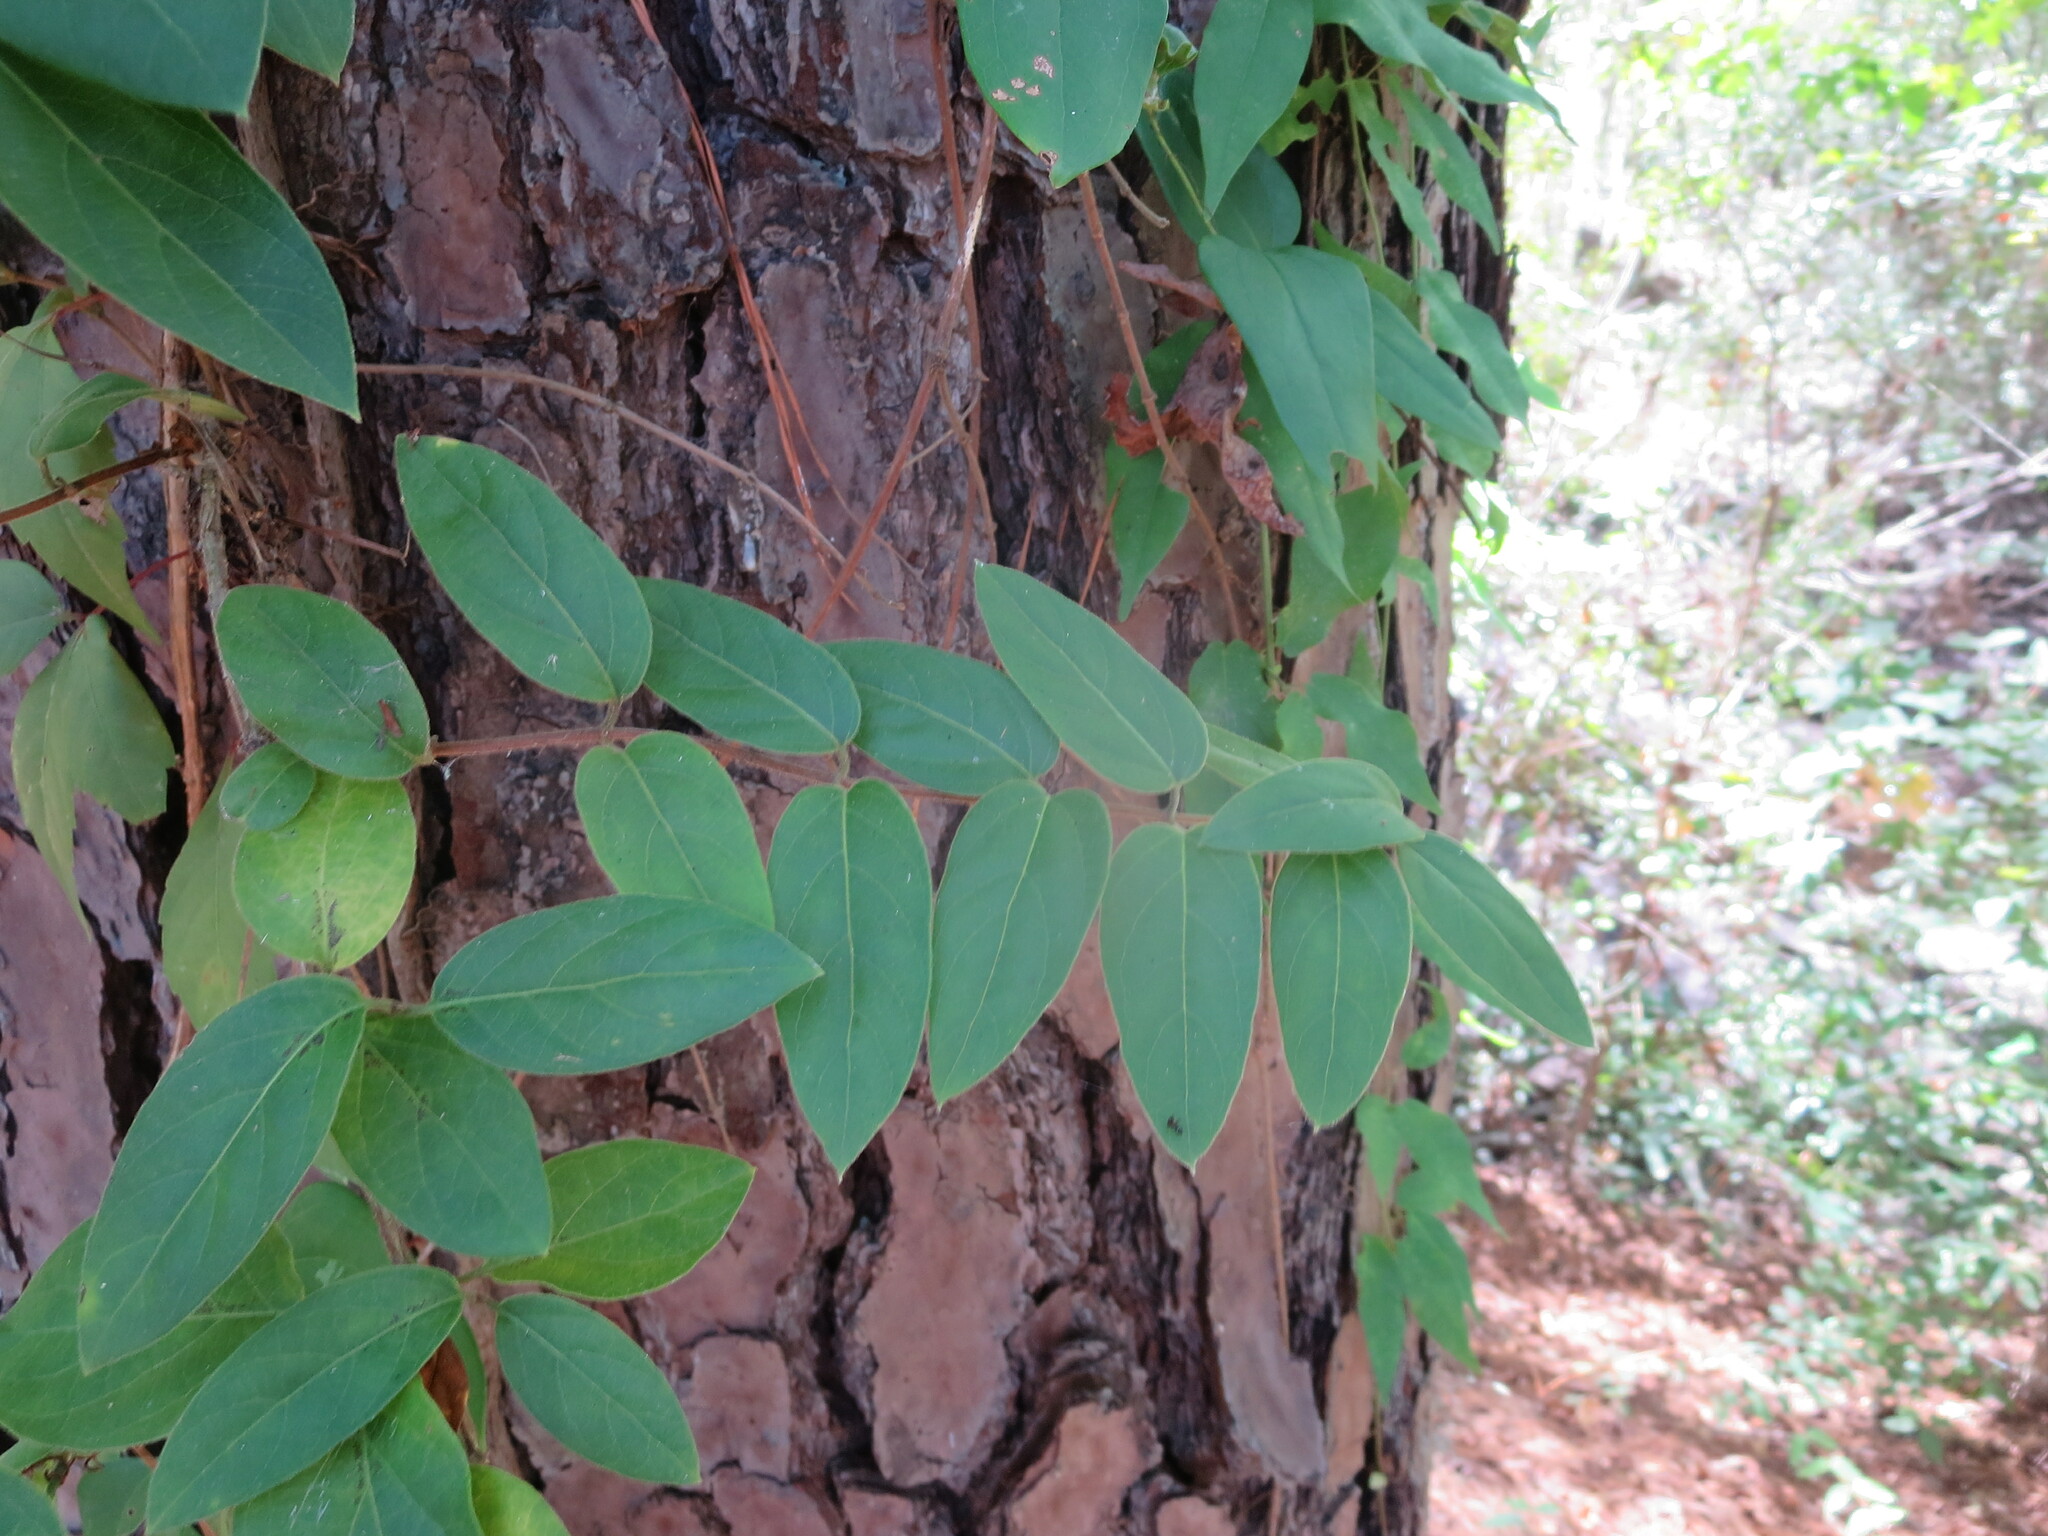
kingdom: Plantae
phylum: Tracheophyta
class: Magnoliopsida
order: Dipsacales
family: Caprifoliaceae
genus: Lonicera
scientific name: Lonicera japonica
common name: Japanese honeysuckle
